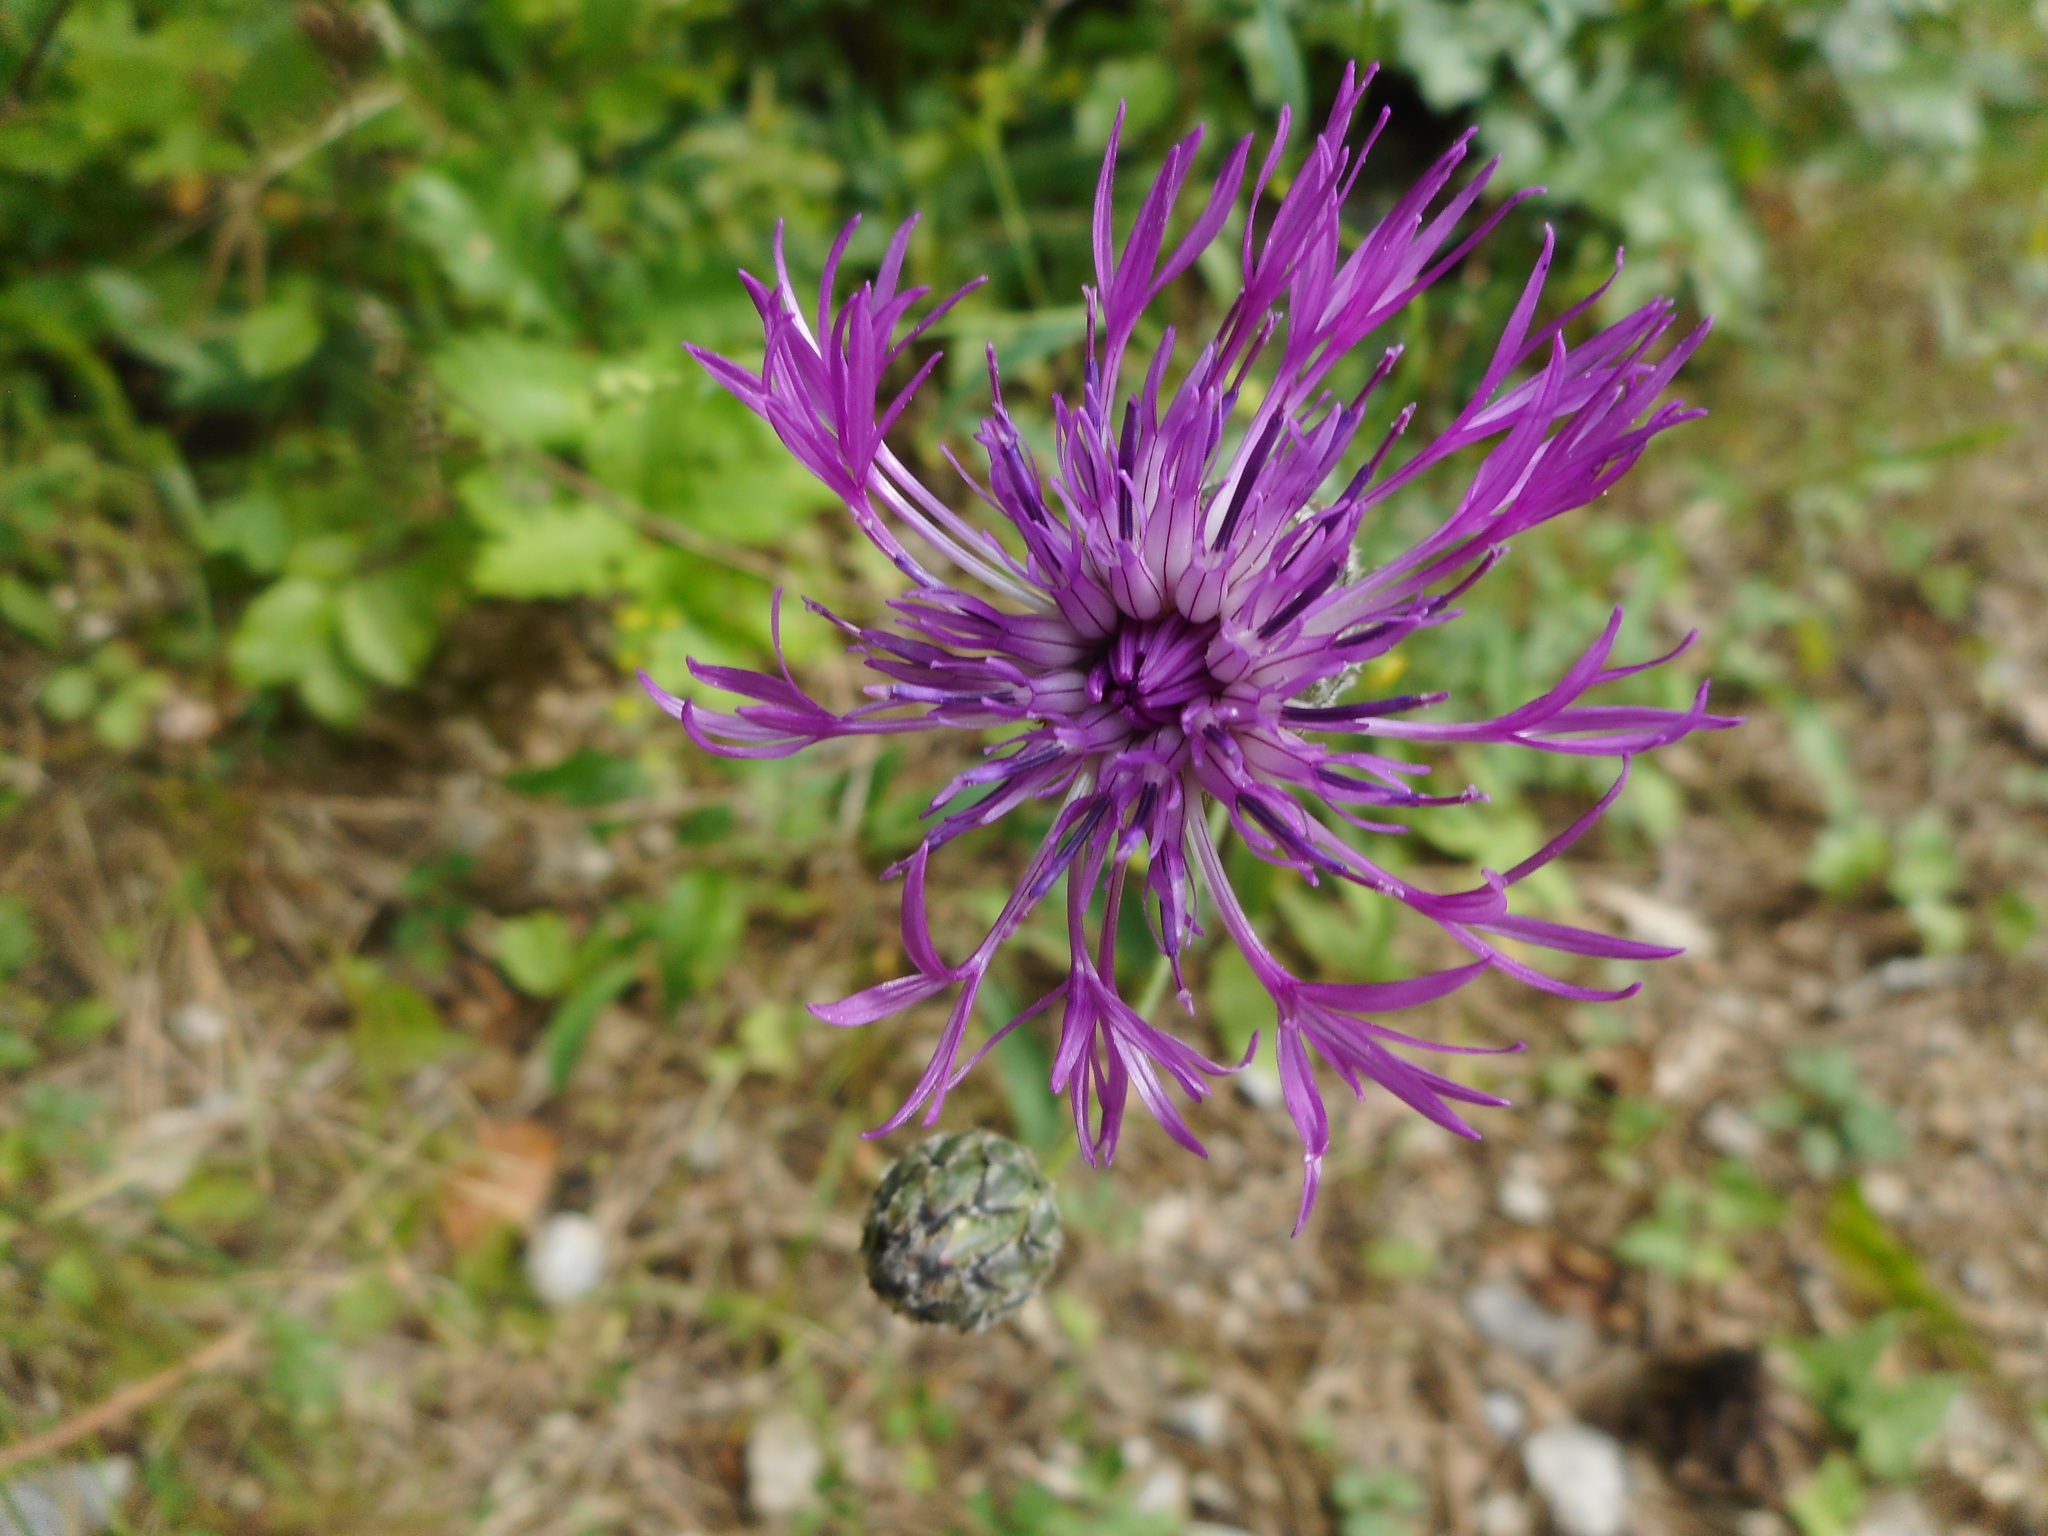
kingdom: Plantae
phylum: Tracheophyta
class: Magnoliopsida
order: Asterales
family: Asteraceae
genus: Centaurea
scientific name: Centaurea scabiosa
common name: Greater knapweed
